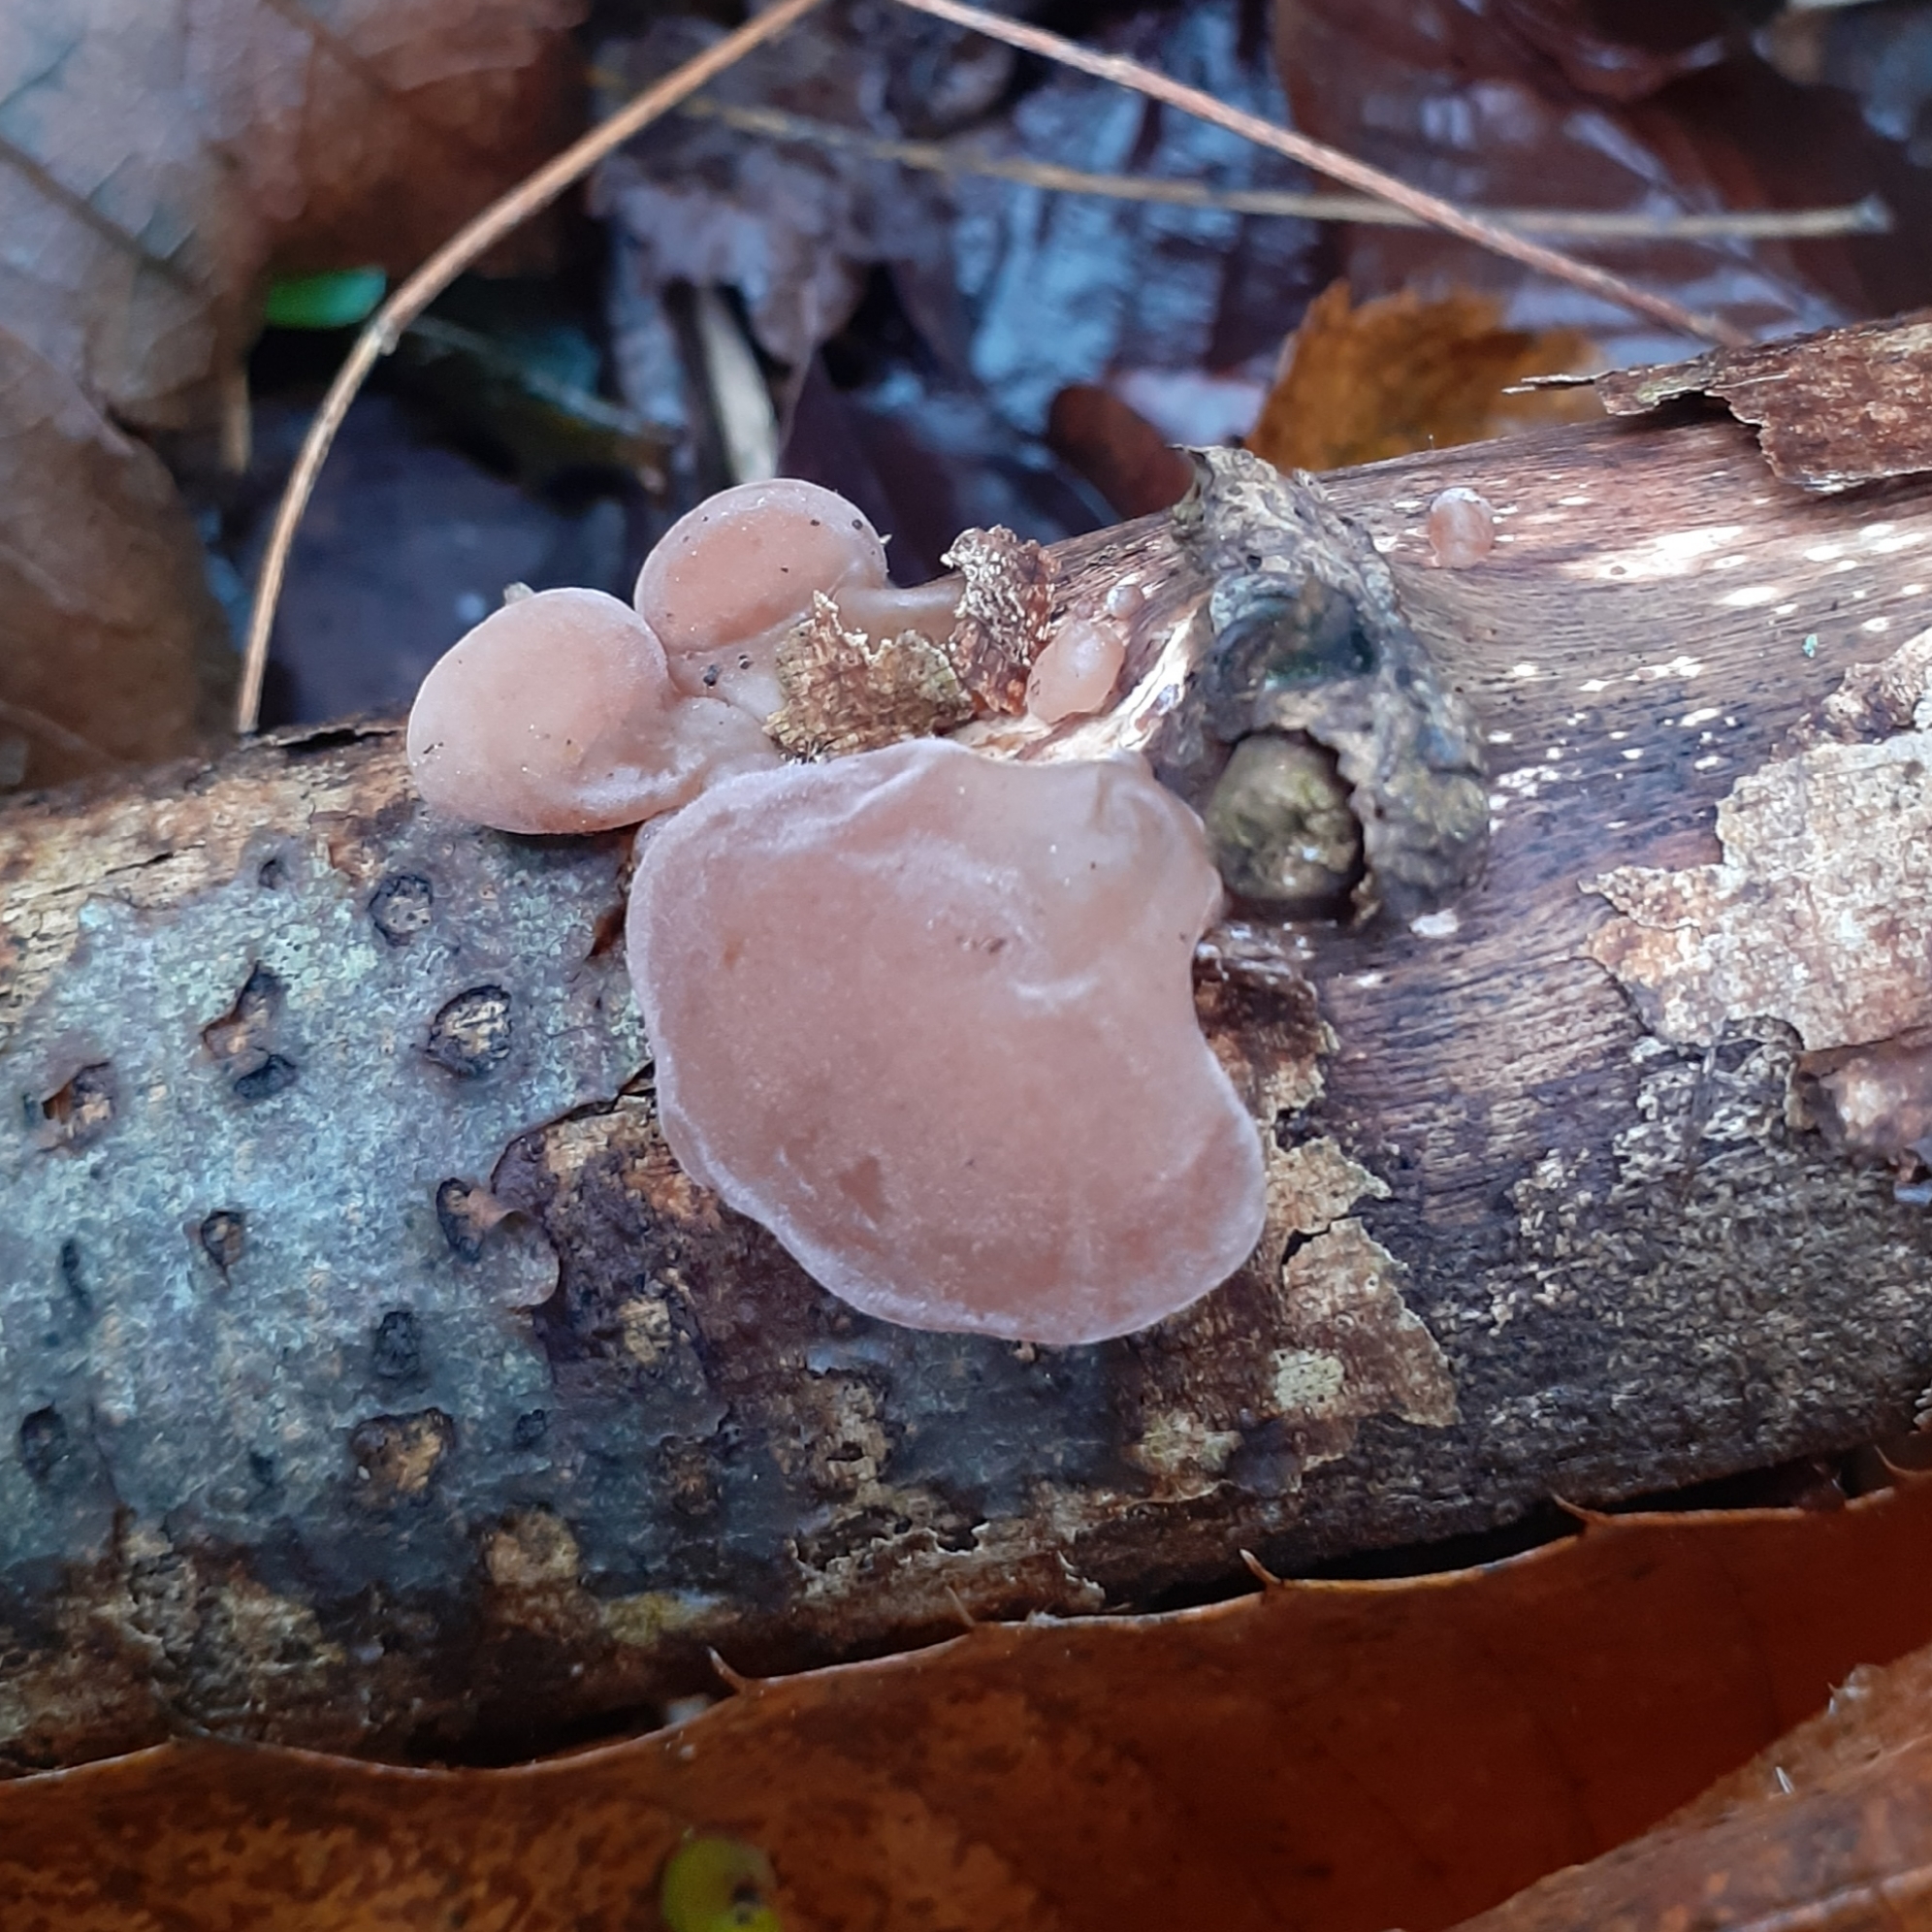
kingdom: Fungi
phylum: Basidiomycota
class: Agaricomycetes
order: Auriculariales
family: Auriculariaceae
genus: Auricularia
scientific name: Auricularia auricula-judae
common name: Jelly ear
